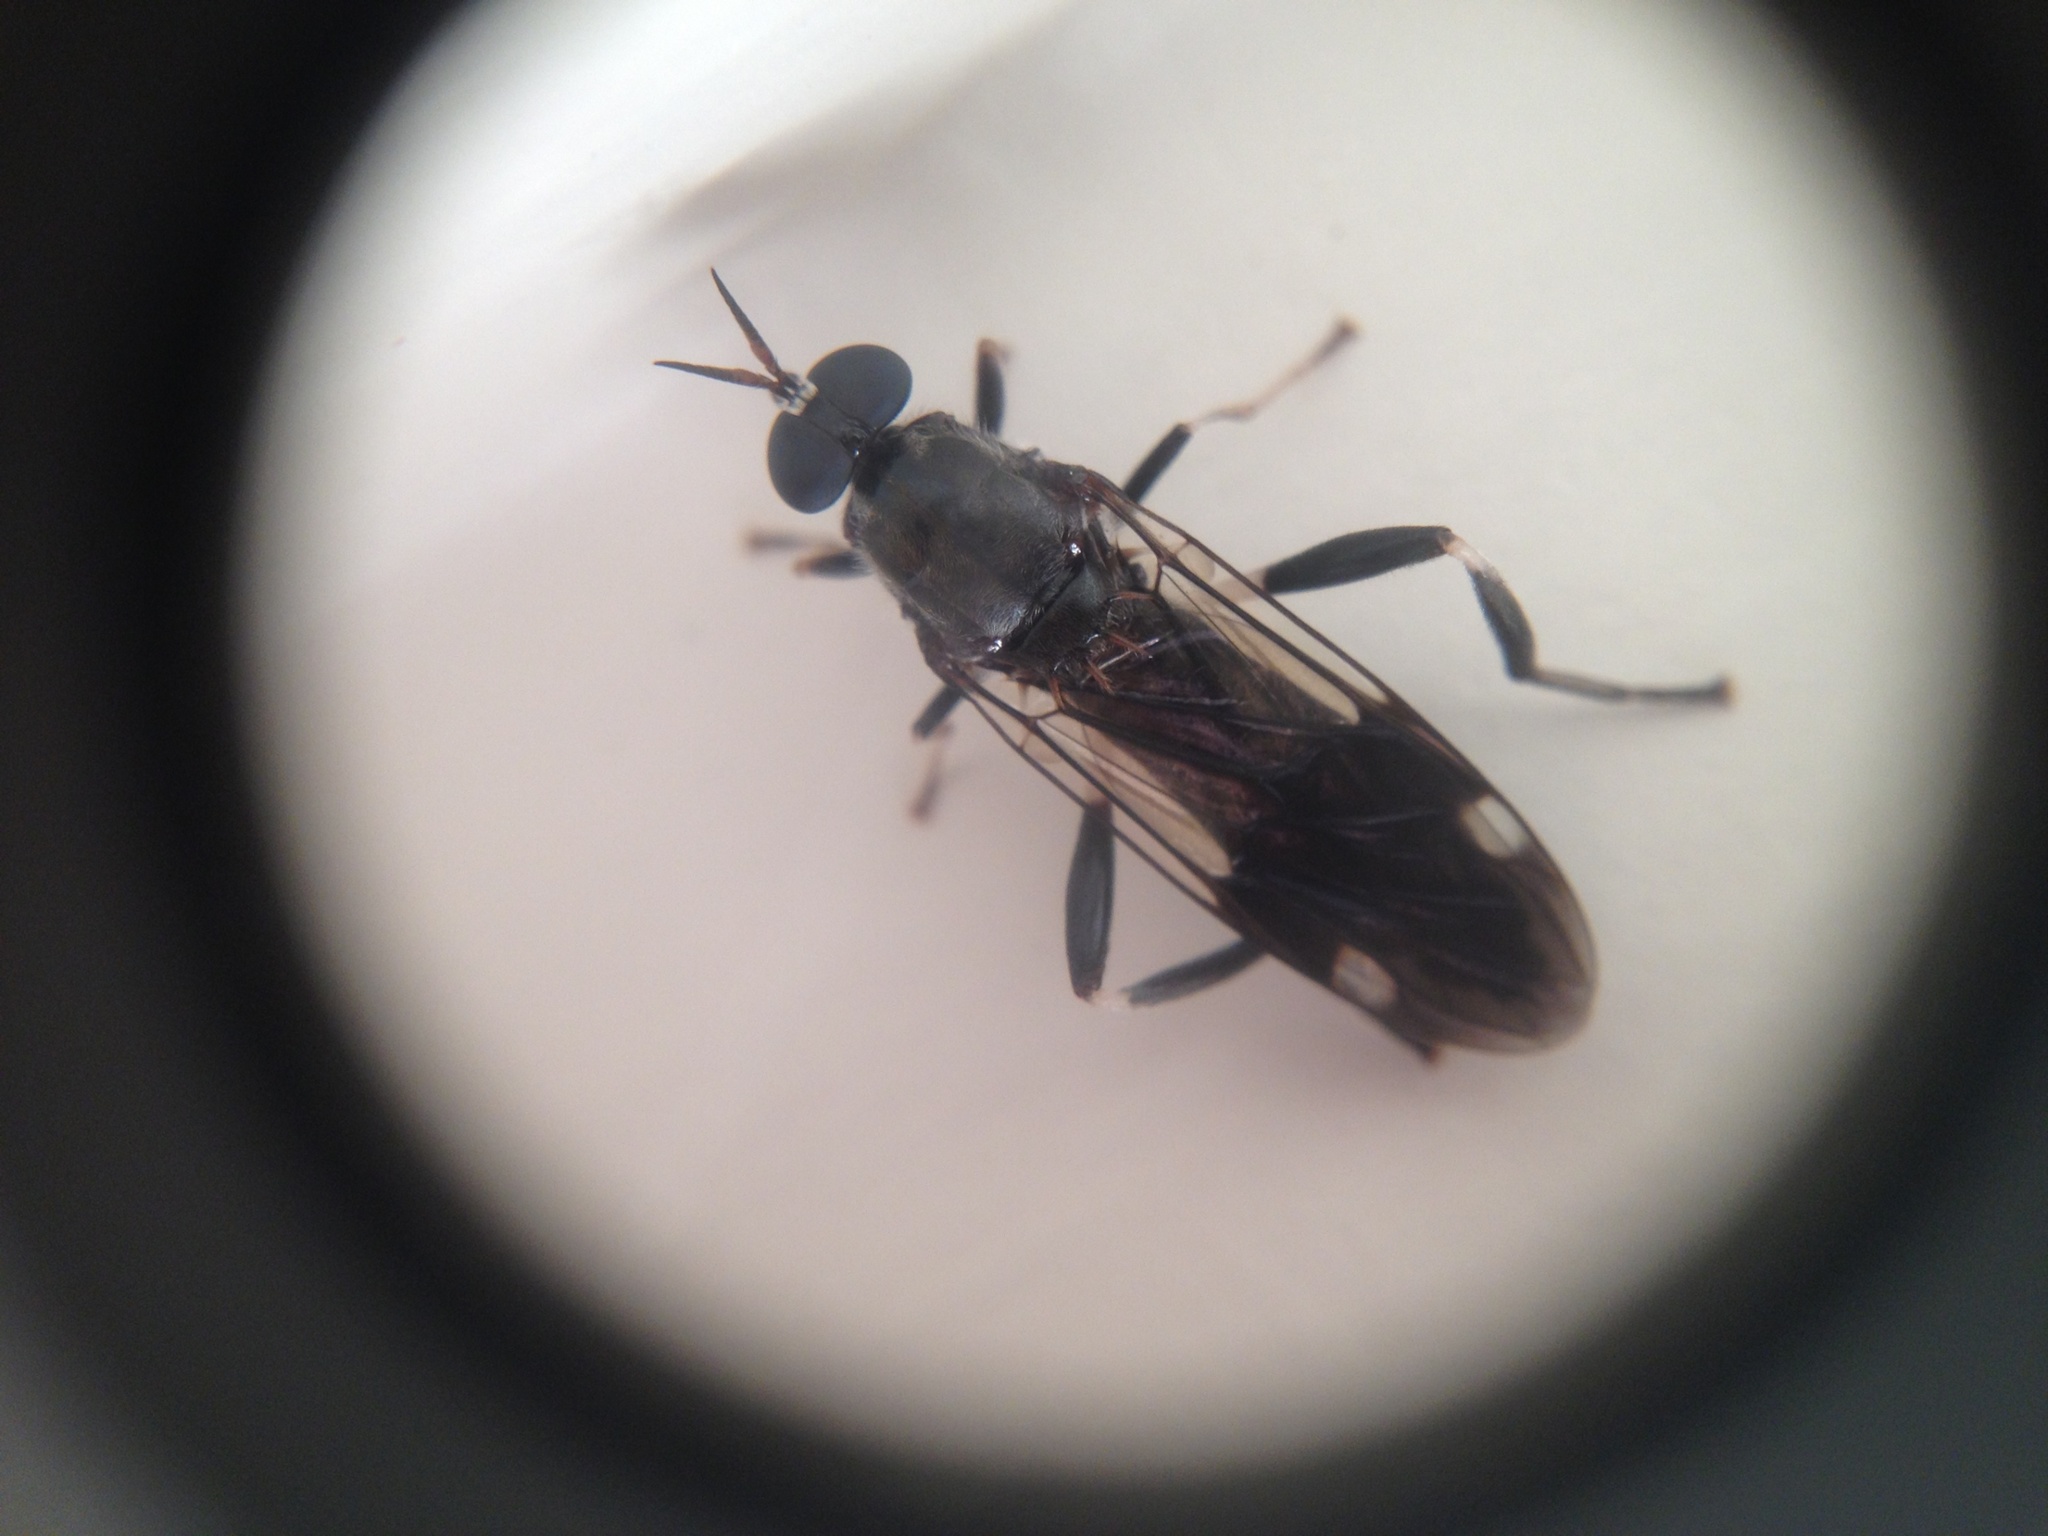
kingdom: Animalia
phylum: Arthropoda
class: Insecta
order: Diptera
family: Stratiomyidae
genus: Exaireta
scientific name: Exaireta spinigera
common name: Blue soldier fly
